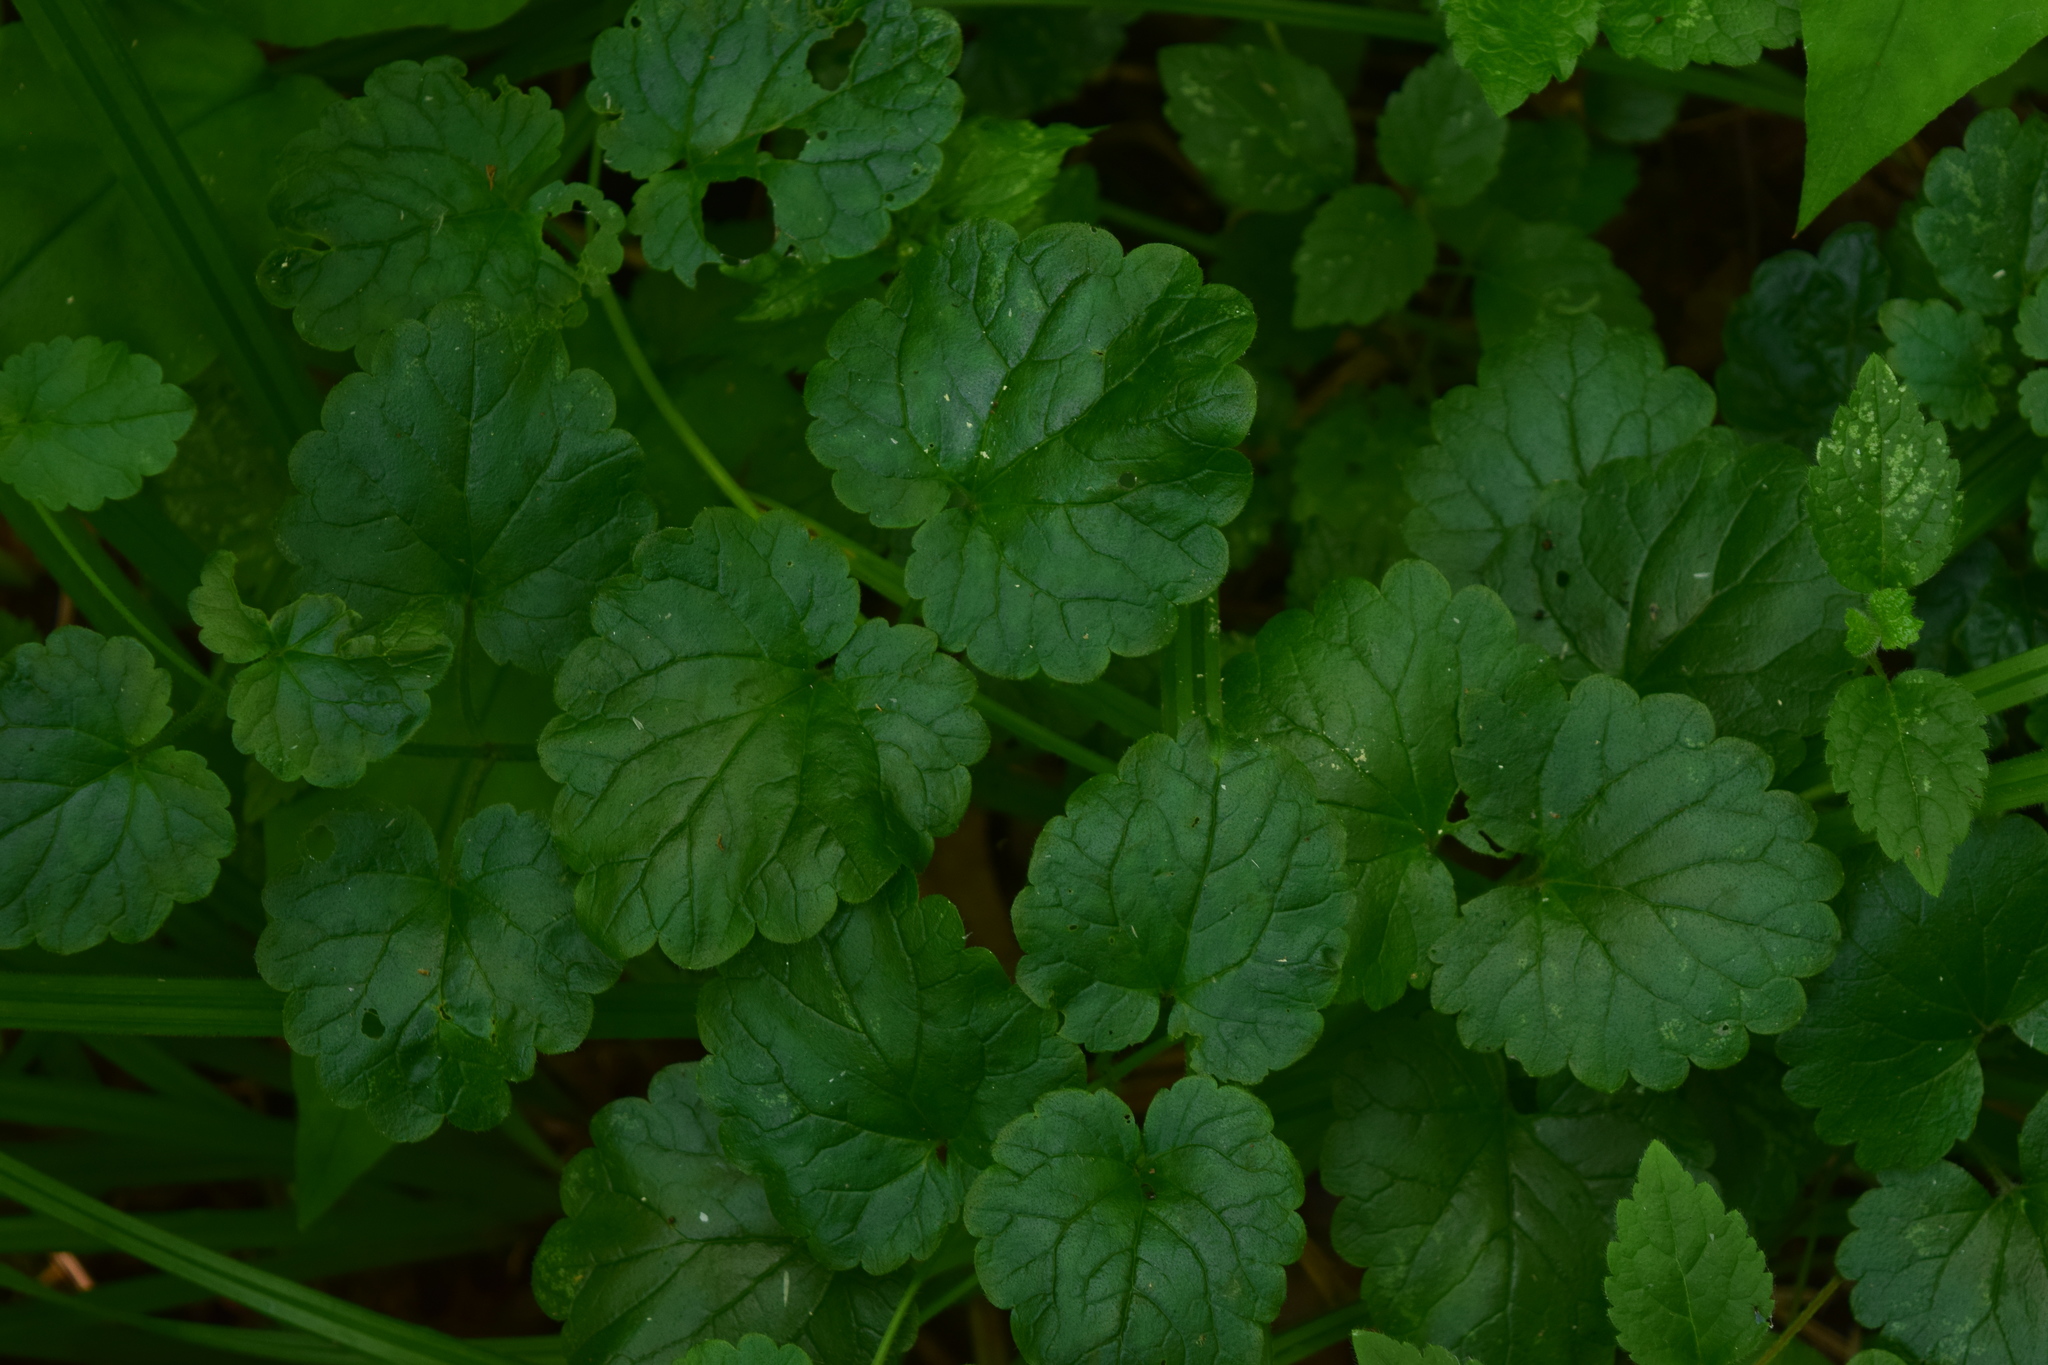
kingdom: Plantae
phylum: Tracheophyta
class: Magnoliopsida
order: Lamiales
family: Lamiaceae
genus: Glechoma
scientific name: Glechoma hederacea
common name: Ground ivy
